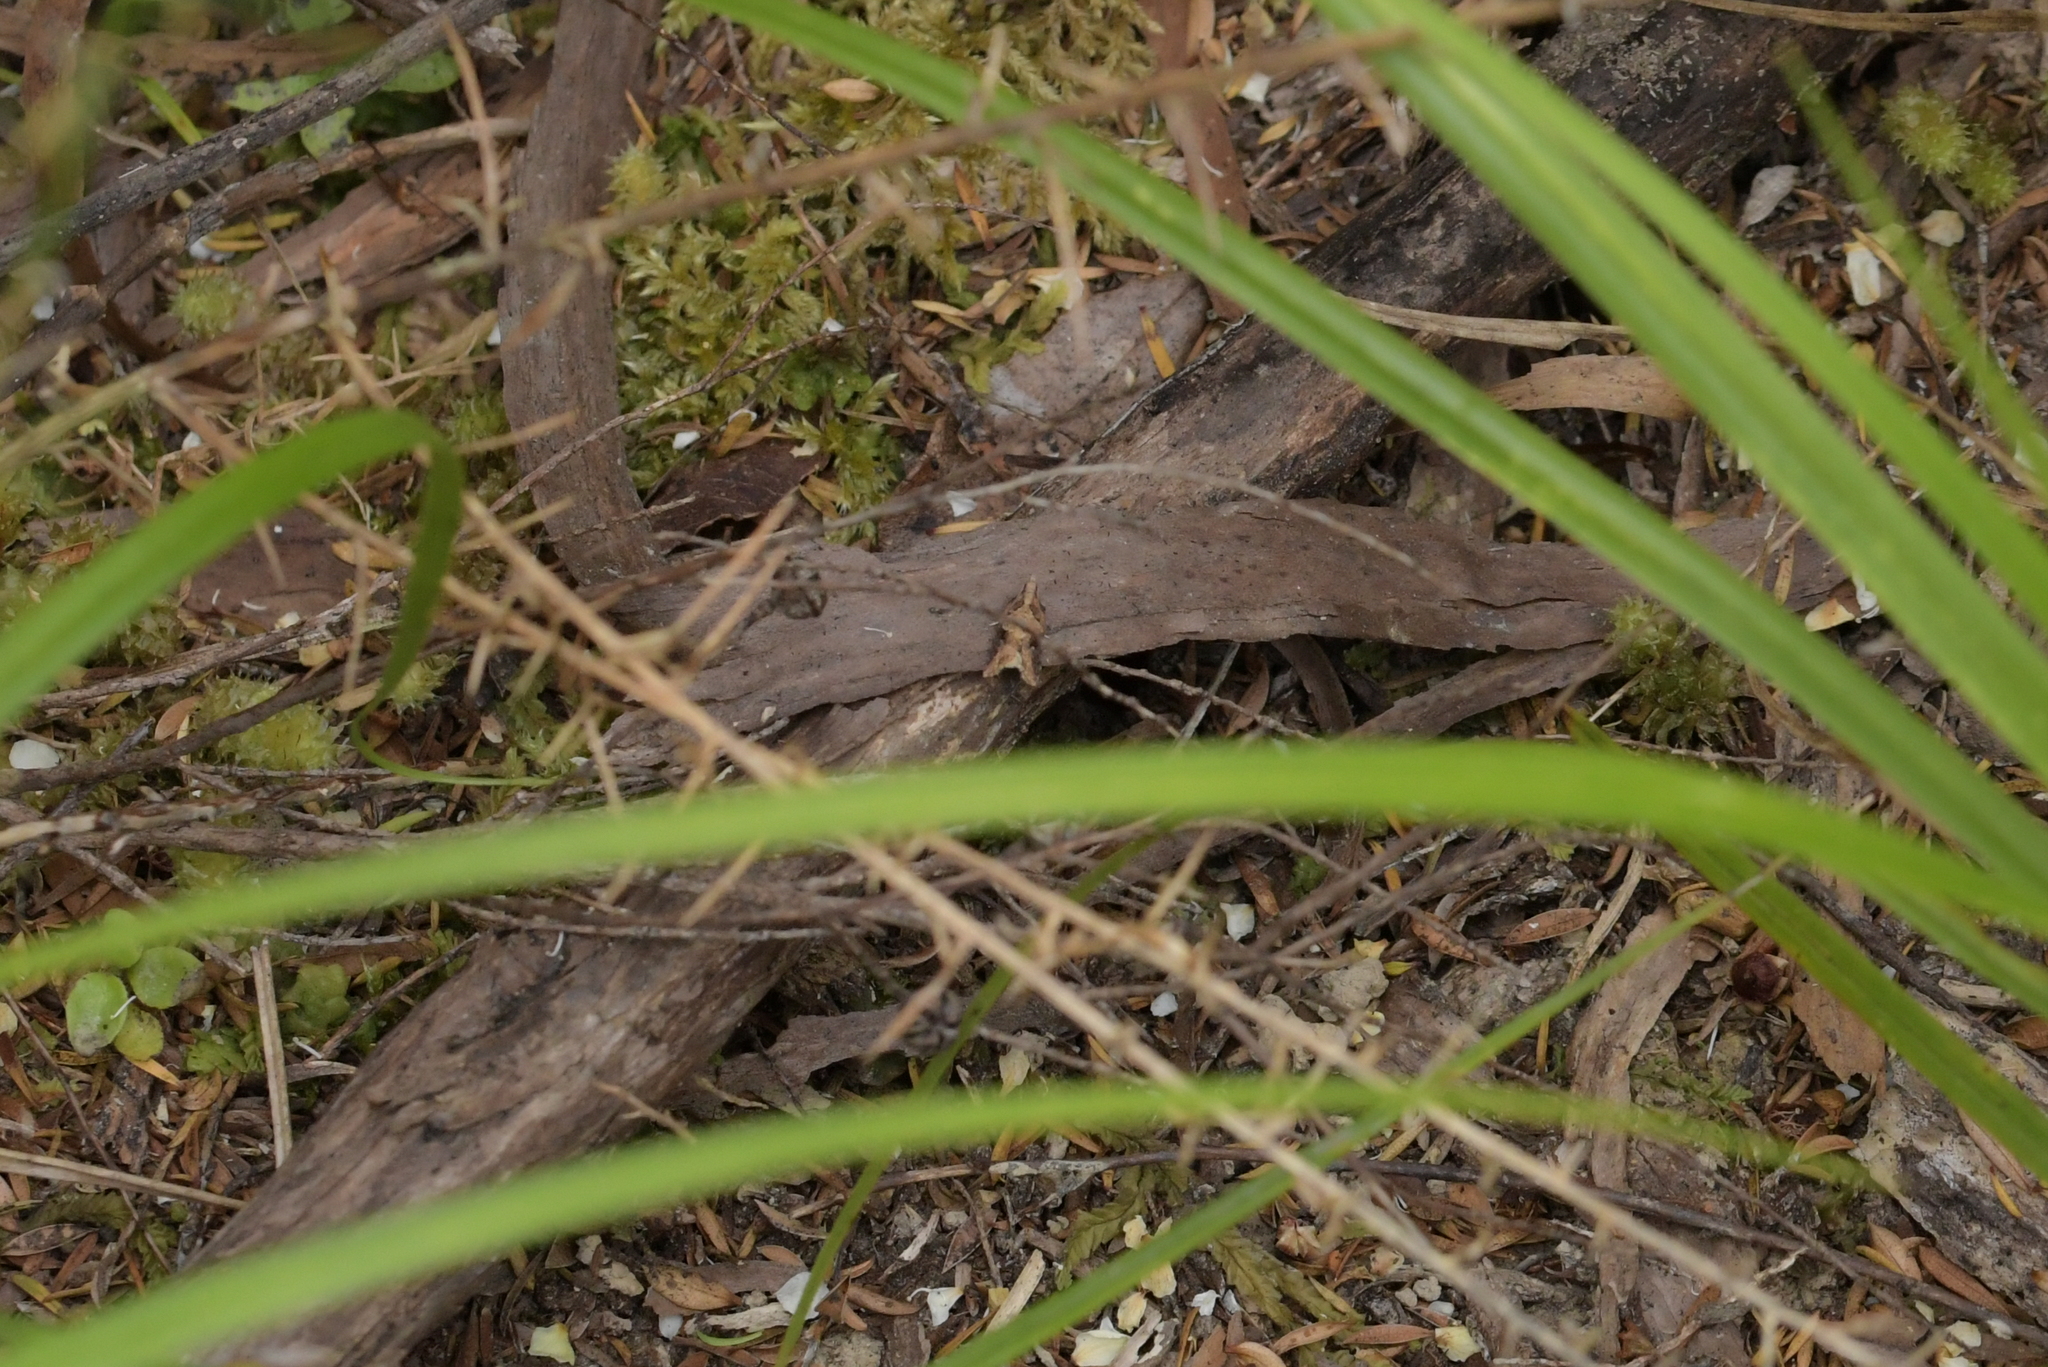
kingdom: Animalia
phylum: Arthropoda
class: Insecta
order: Lepidoptera
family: Tortricidae
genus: Capua
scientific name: Capua semiferana
